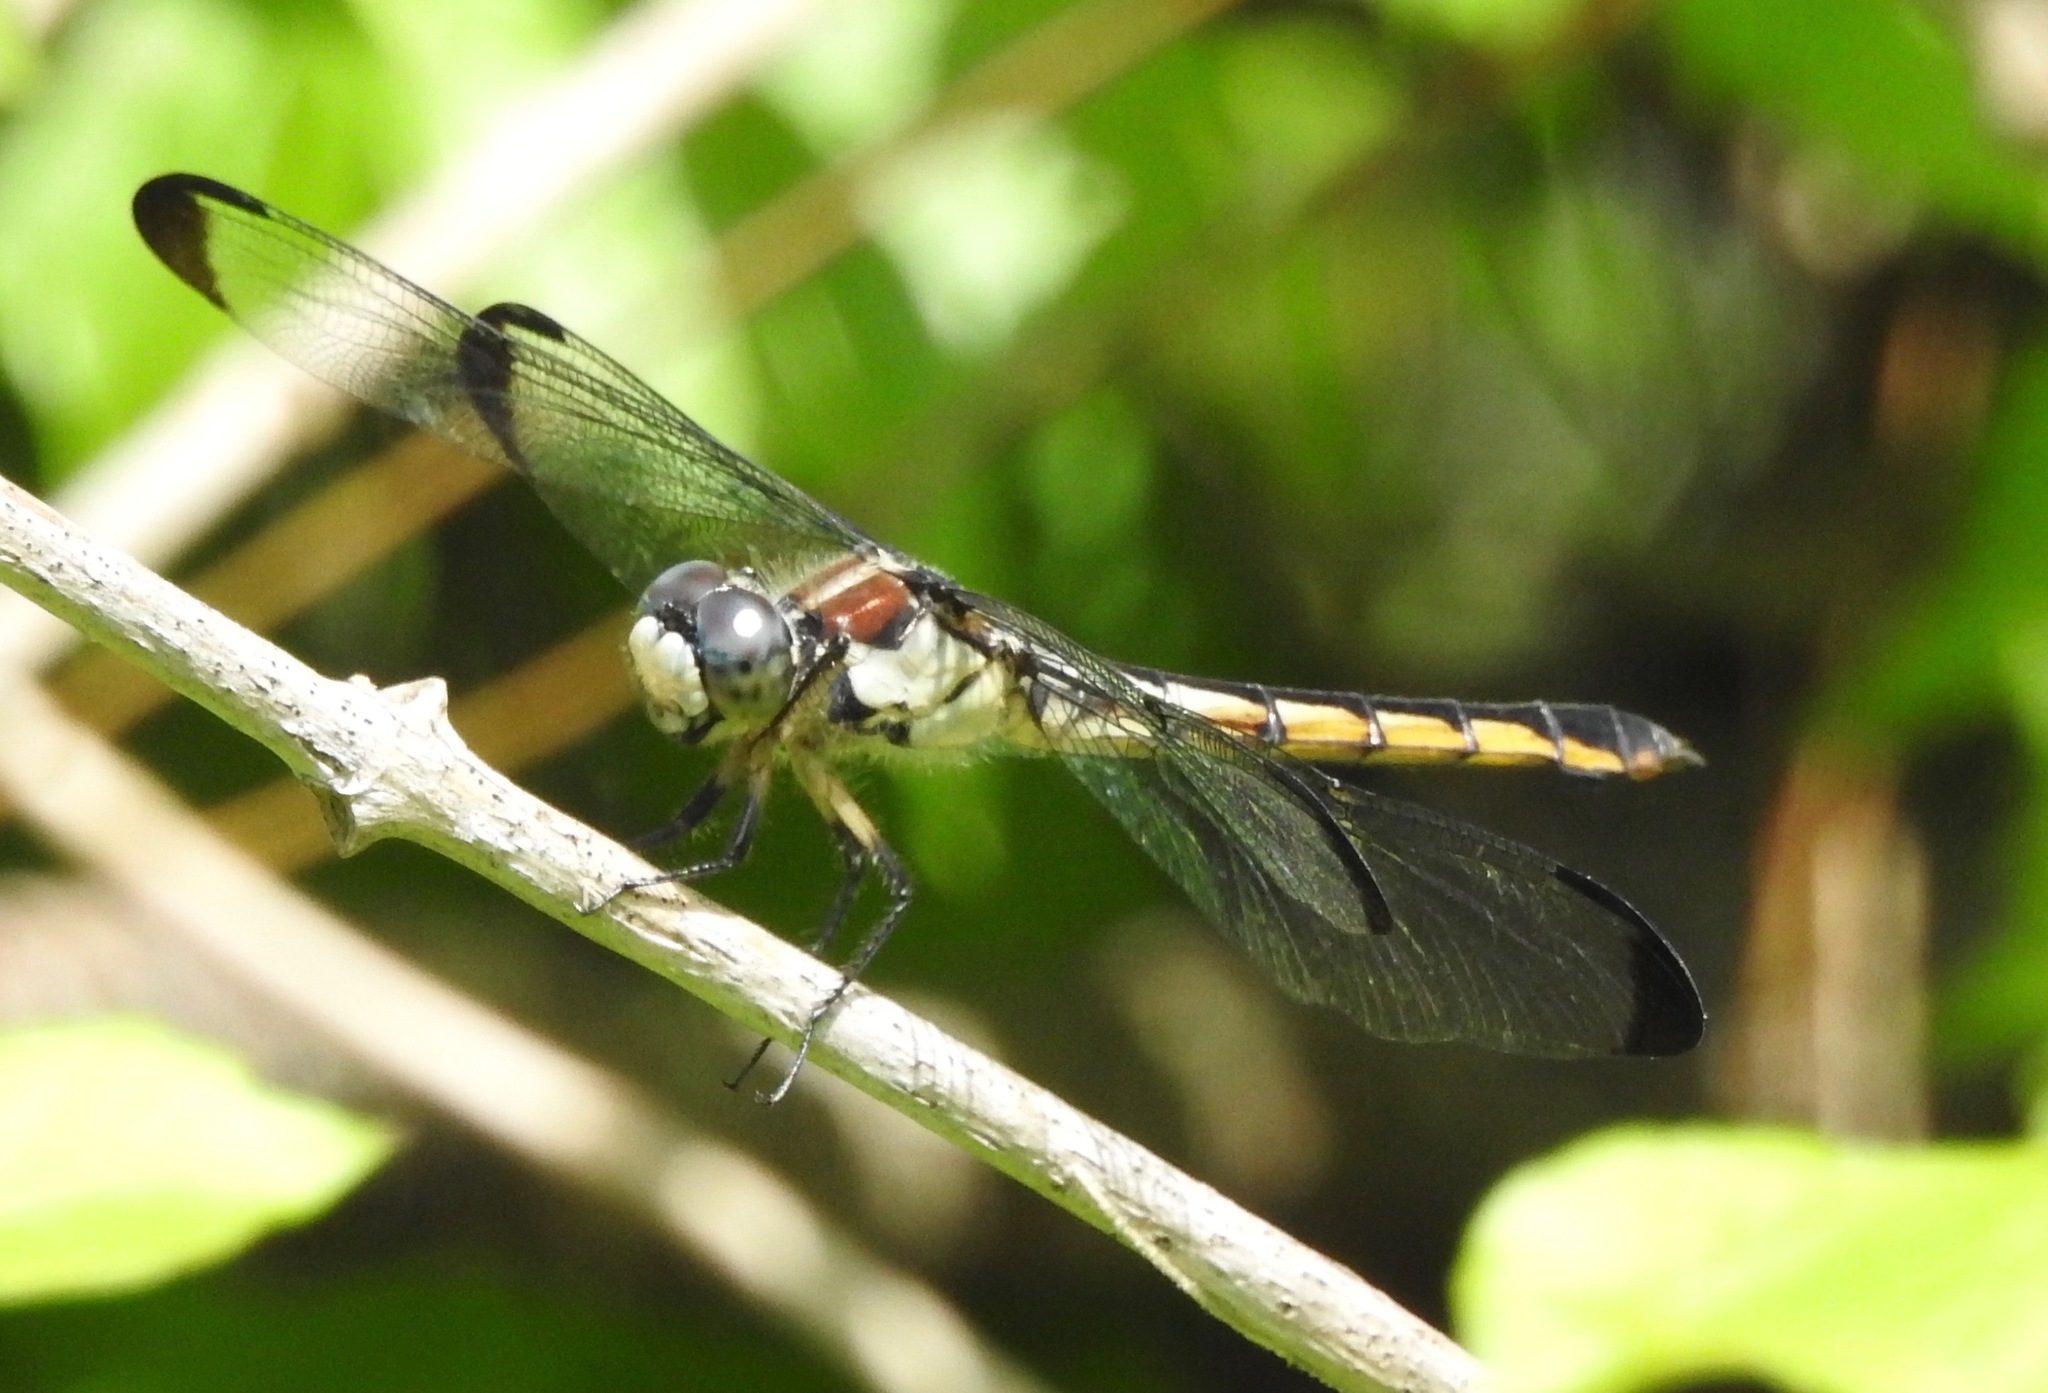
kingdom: Animalia
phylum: Arthropoda
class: Insecta
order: Odonata
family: Libellulidae
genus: Libellula
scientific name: Libellula vibrans
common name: Great blue skimmer
